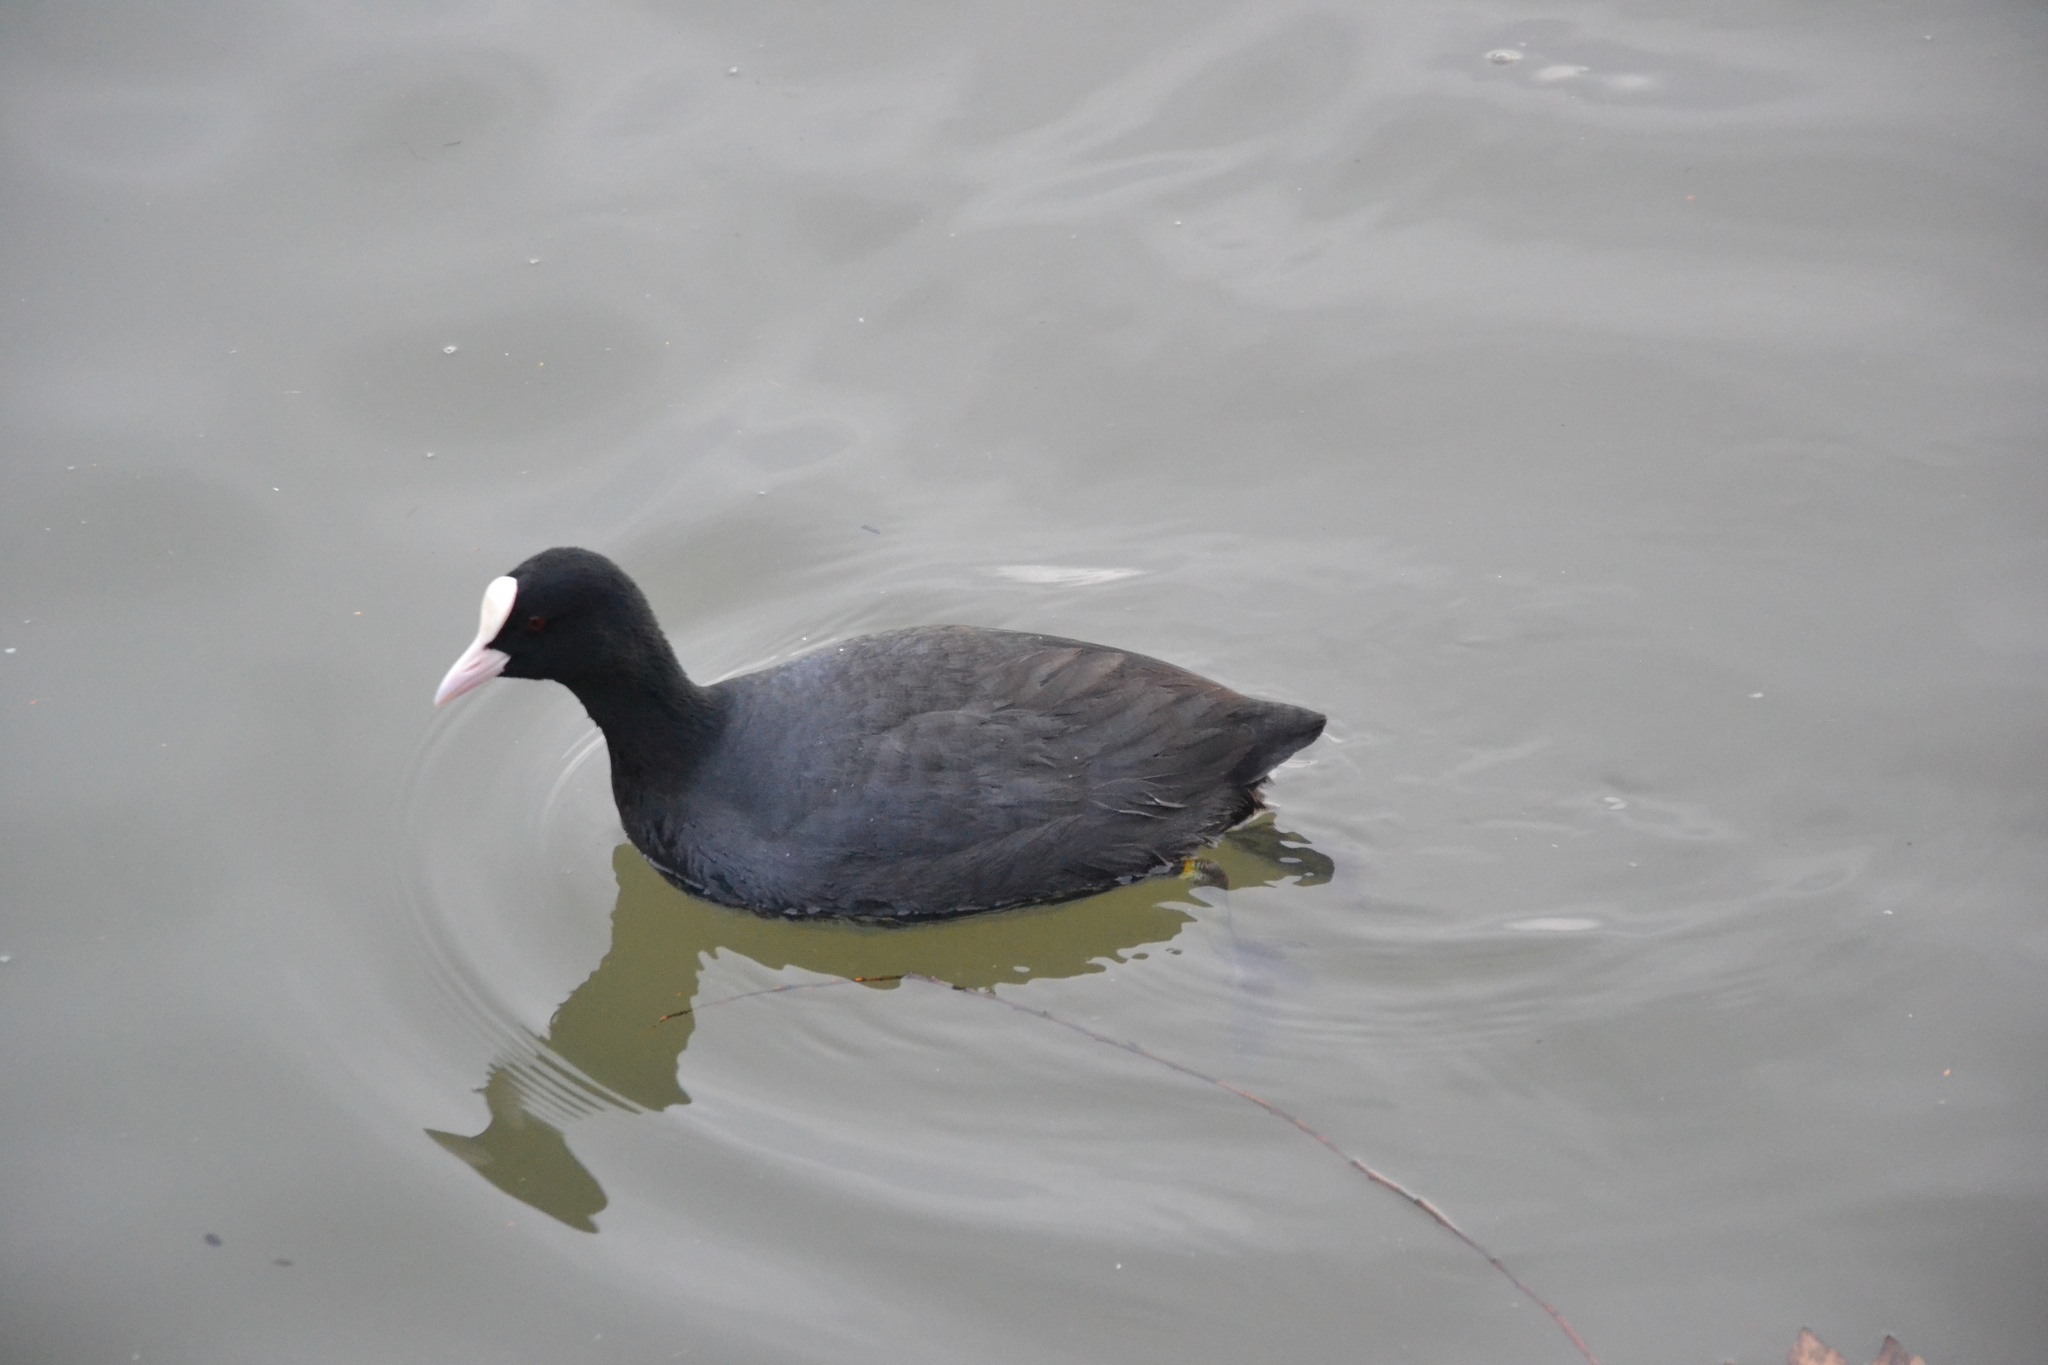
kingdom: Animalia
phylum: Chordata
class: Aves
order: Gruiformes
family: Rallidae
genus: Fulica
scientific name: Fulica atra
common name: Eurasian coot
